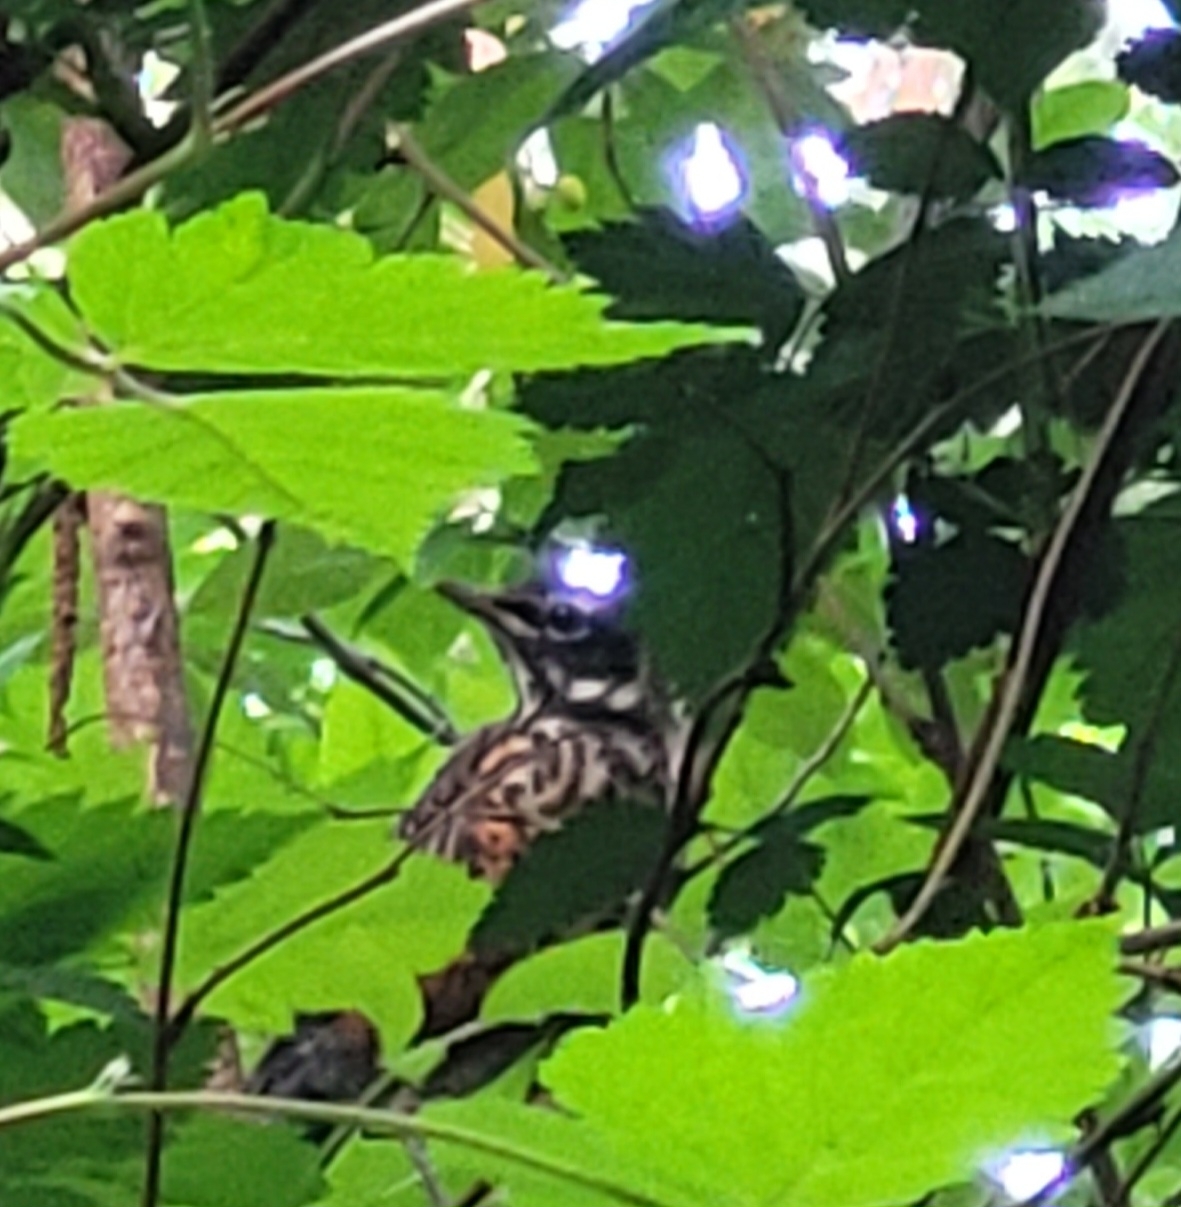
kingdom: Animalia
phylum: Chordata
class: Aves
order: Passeriformes
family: Turdidae
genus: Turdus
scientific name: Turdus migratorius
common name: American robin
